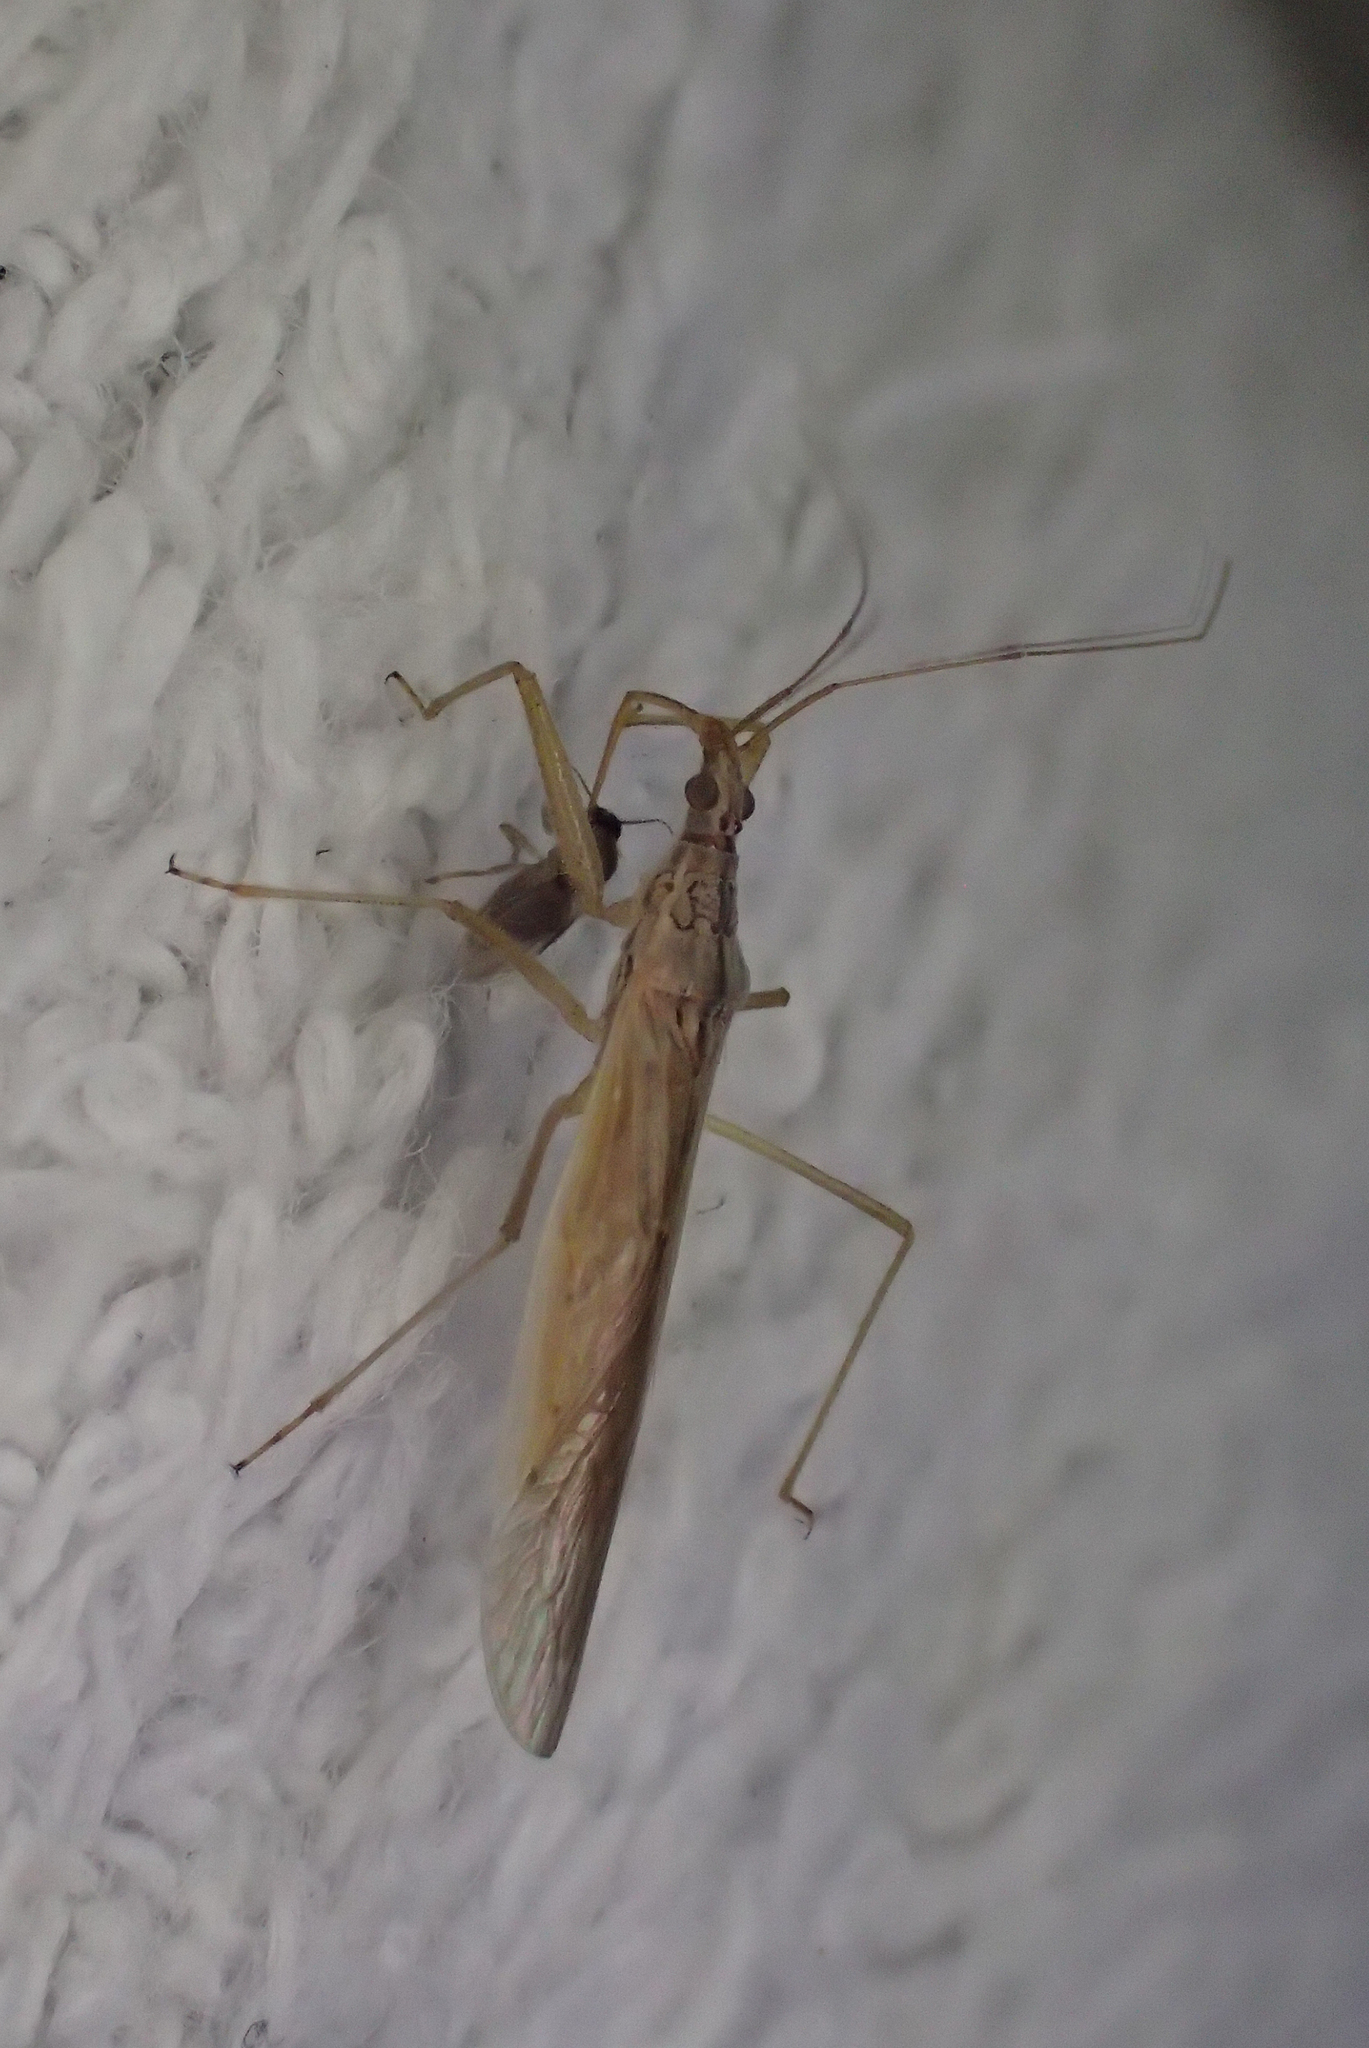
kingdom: Animalia
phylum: Arthropoda
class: Insecta
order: Hemiptera
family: Nabidae
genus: Nabis
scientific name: Nabis capsiformis
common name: Pale damsel bug
